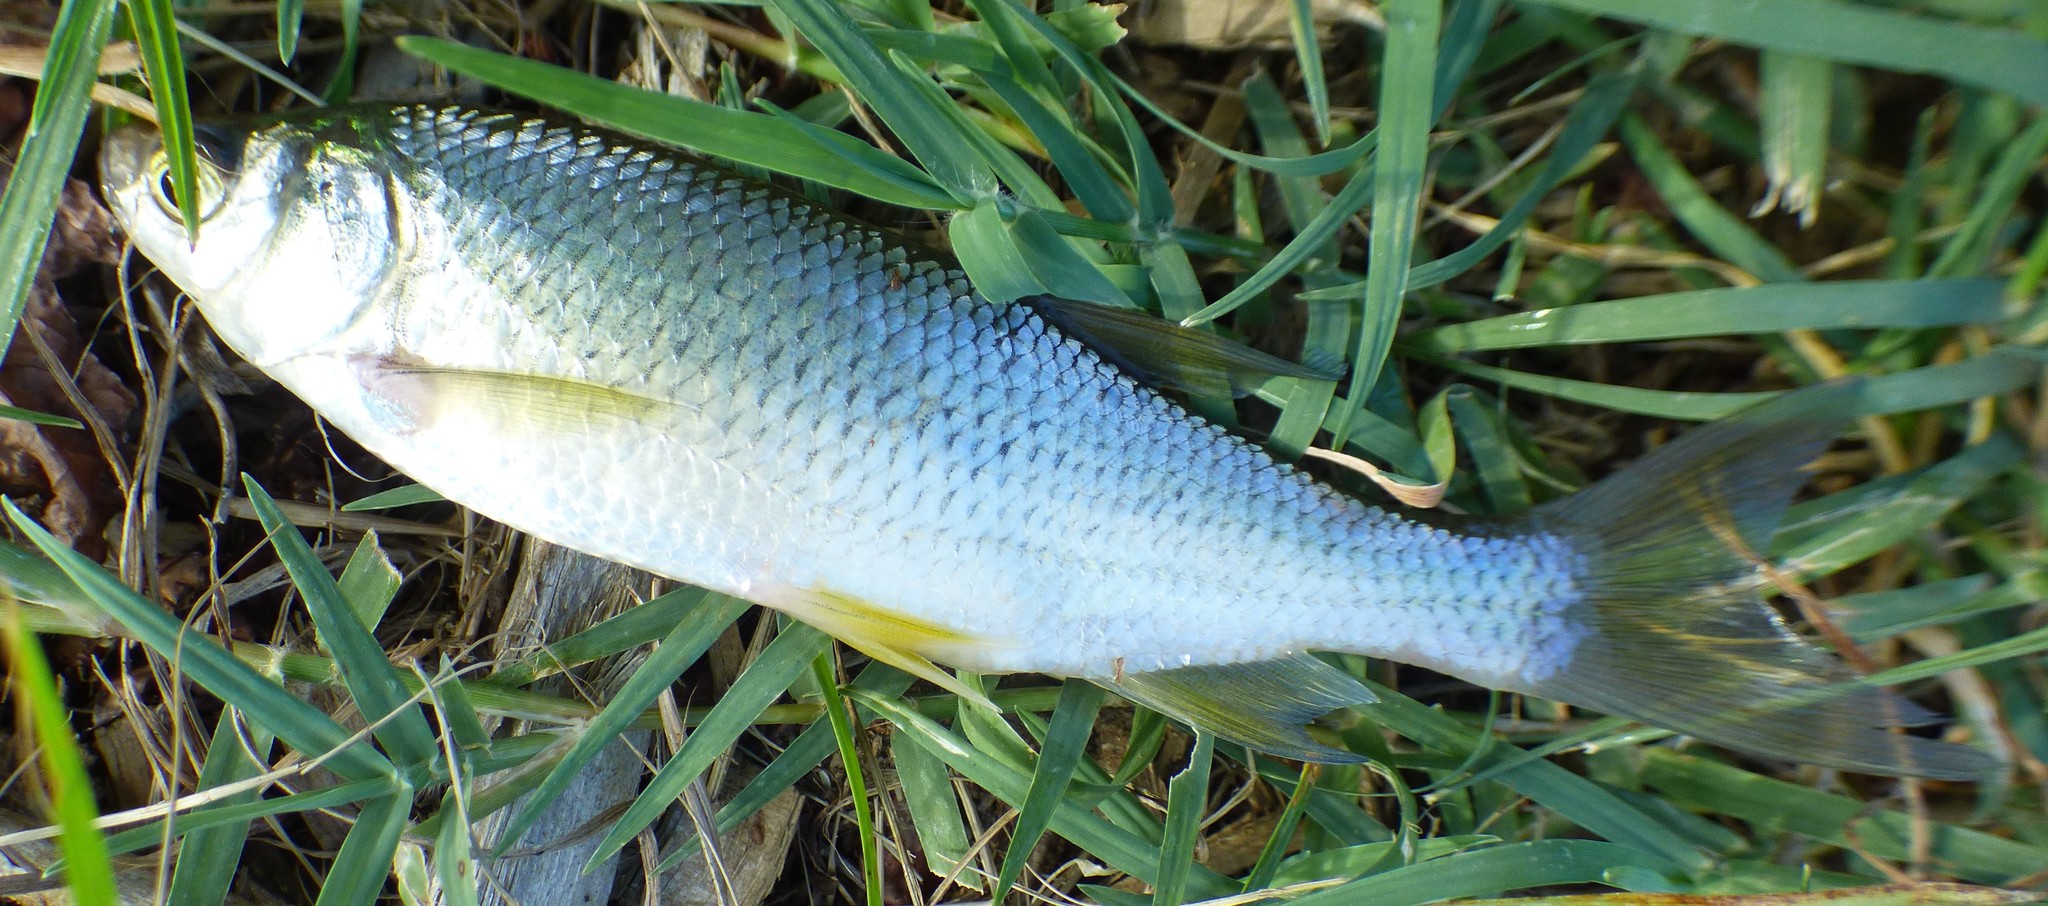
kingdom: Animalia
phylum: Chordata
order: Cypriniformes
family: Cyprinidae
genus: Notemigonus
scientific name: Notemigonus crysoleucas
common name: Golden shiner
